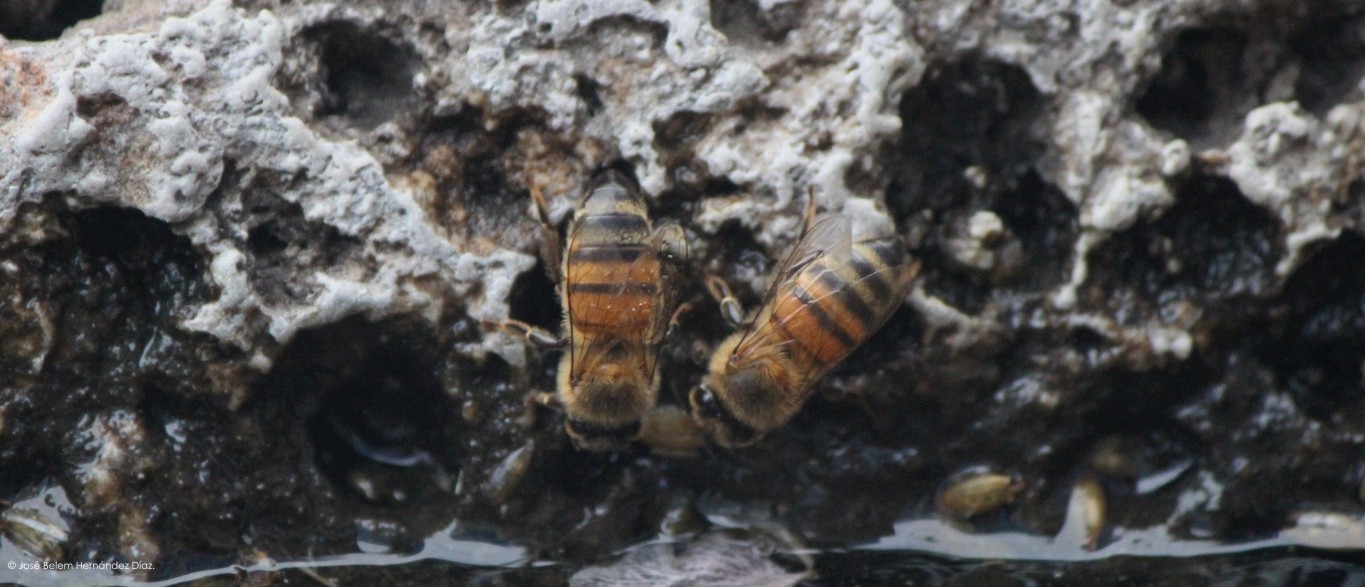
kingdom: Animalia
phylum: Arthropoda
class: Insecta
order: Hymenoptera
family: Apidae
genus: Apis
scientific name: Apis mellifera
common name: Honey bee
